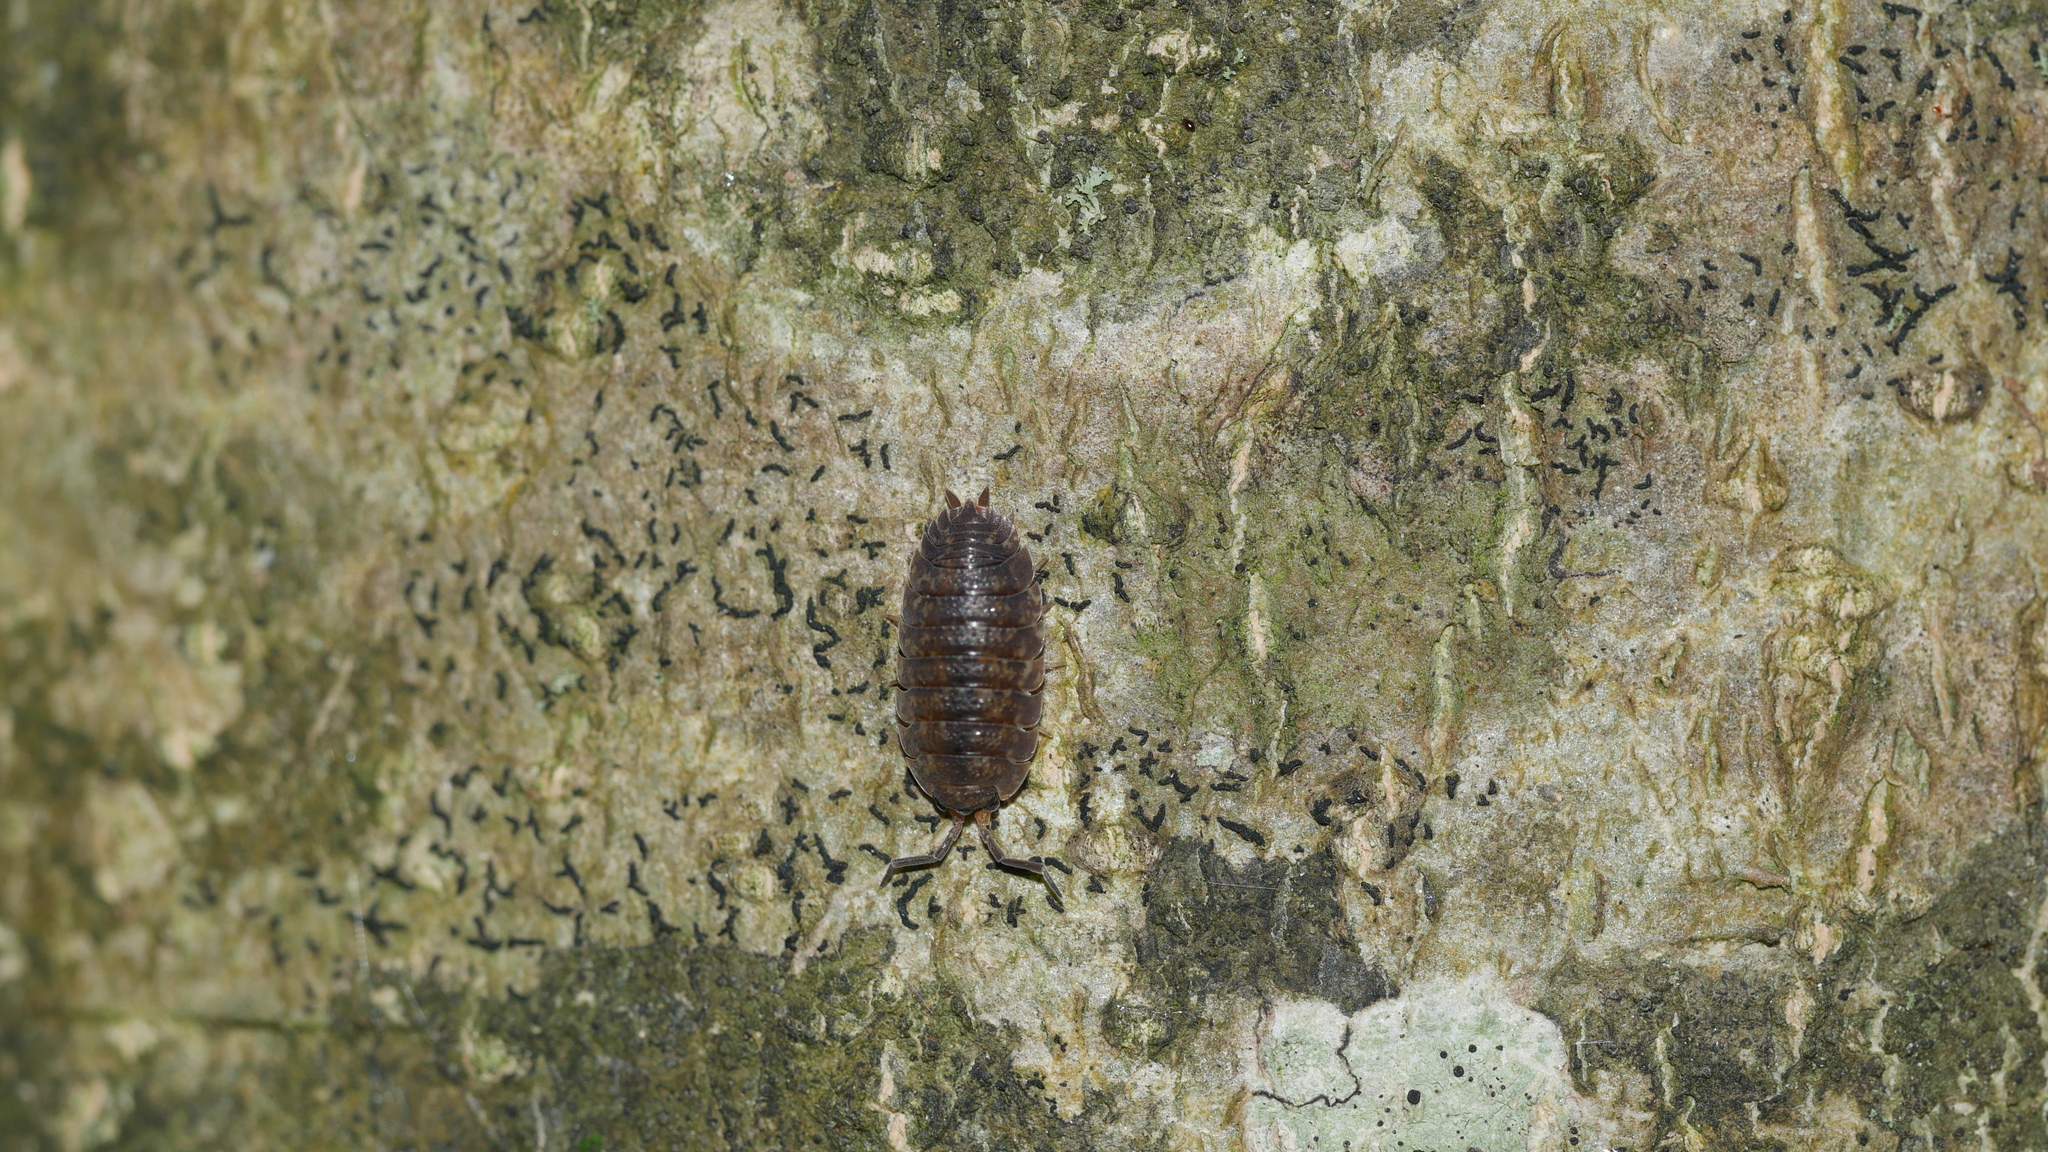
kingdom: Animalia
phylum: Arthropoda
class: Malacostraca
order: Isopoda
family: Porcellionidae
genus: Porcellio
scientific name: Porcellio scaber
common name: Common rough woodlouse
